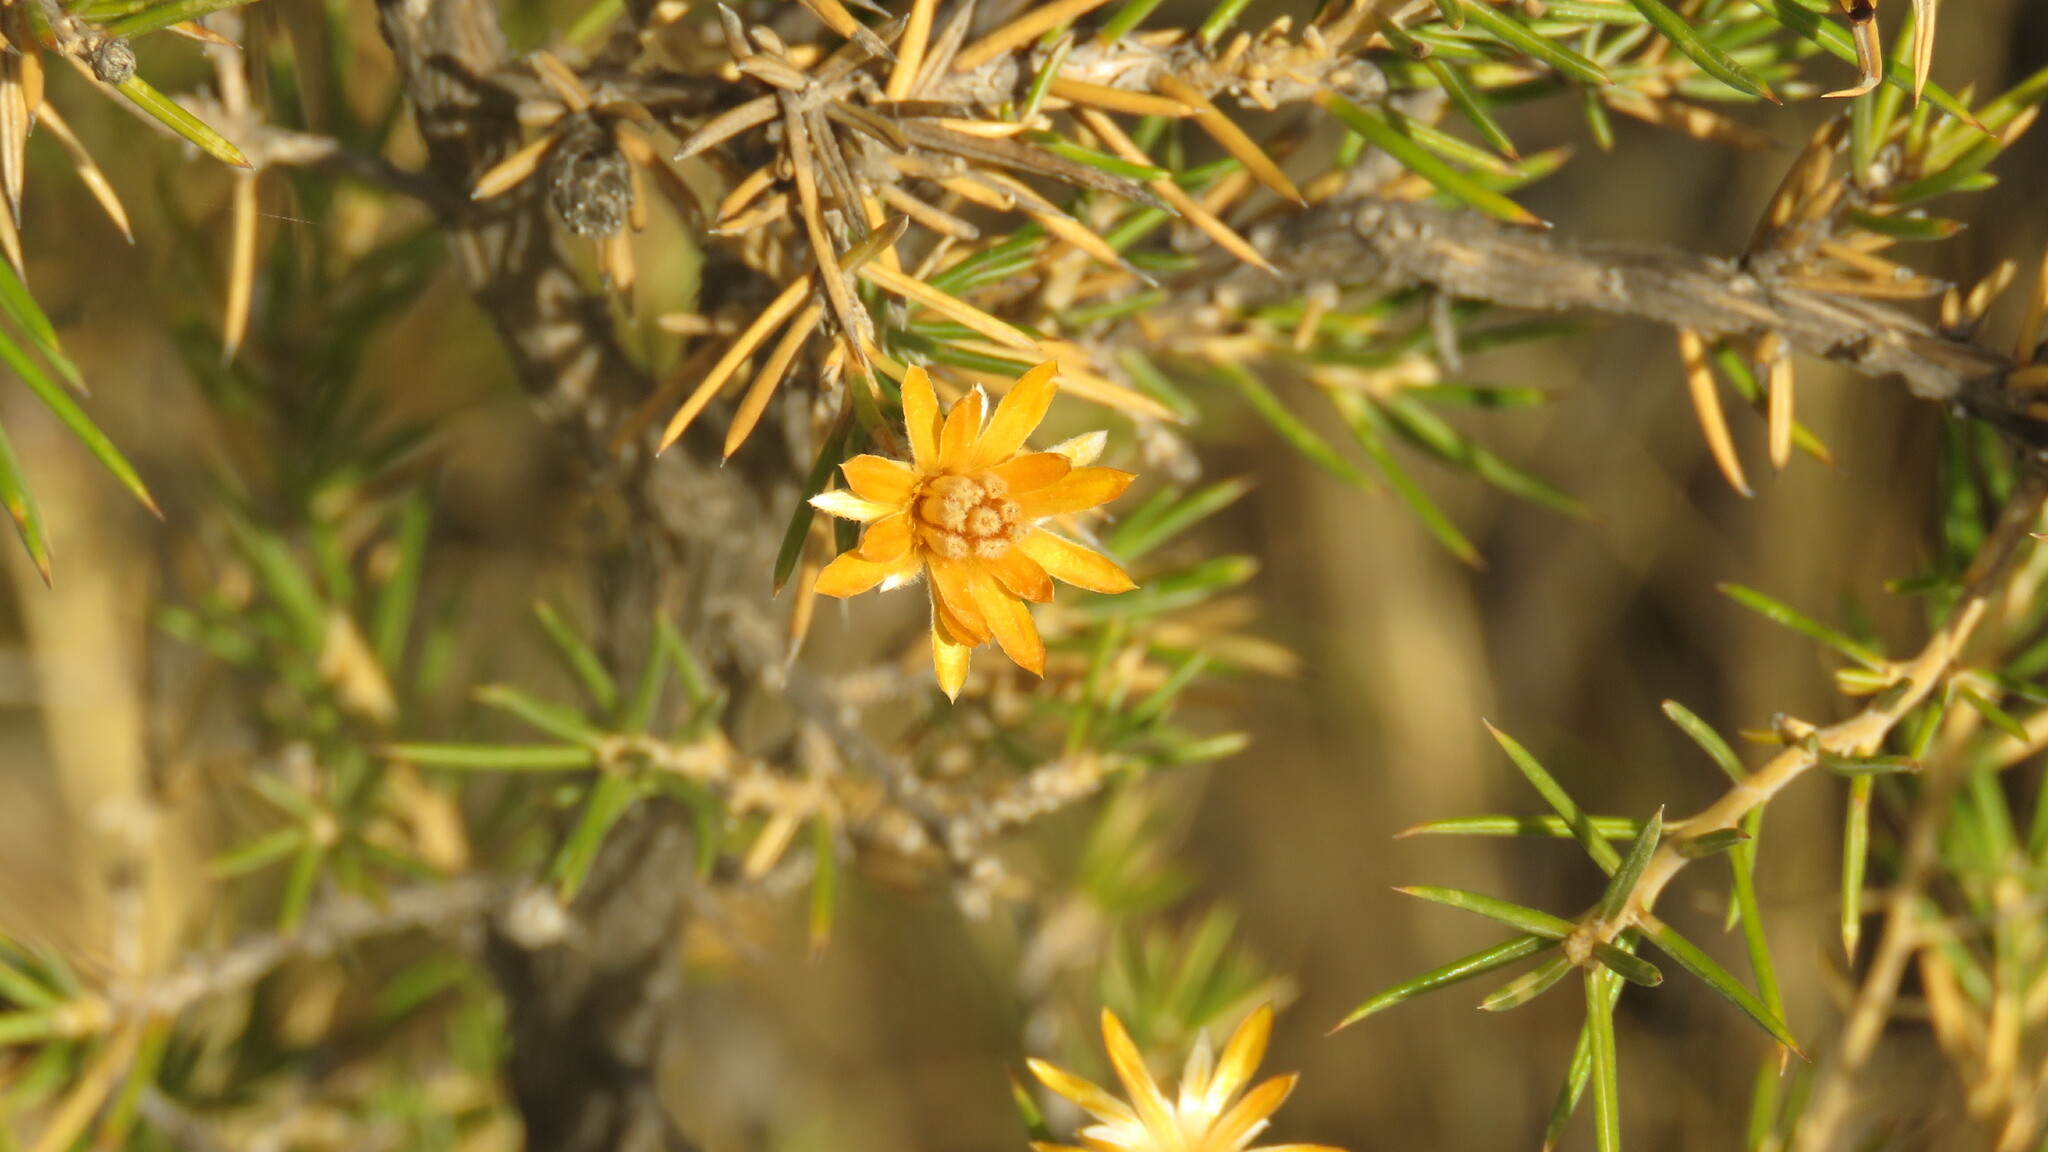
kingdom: Plantae
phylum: Tracheophyta
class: Magnoliopsida
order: Asterales
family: Asteraceae
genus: Chuquiraga
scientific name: Chuquiraga erinacea
